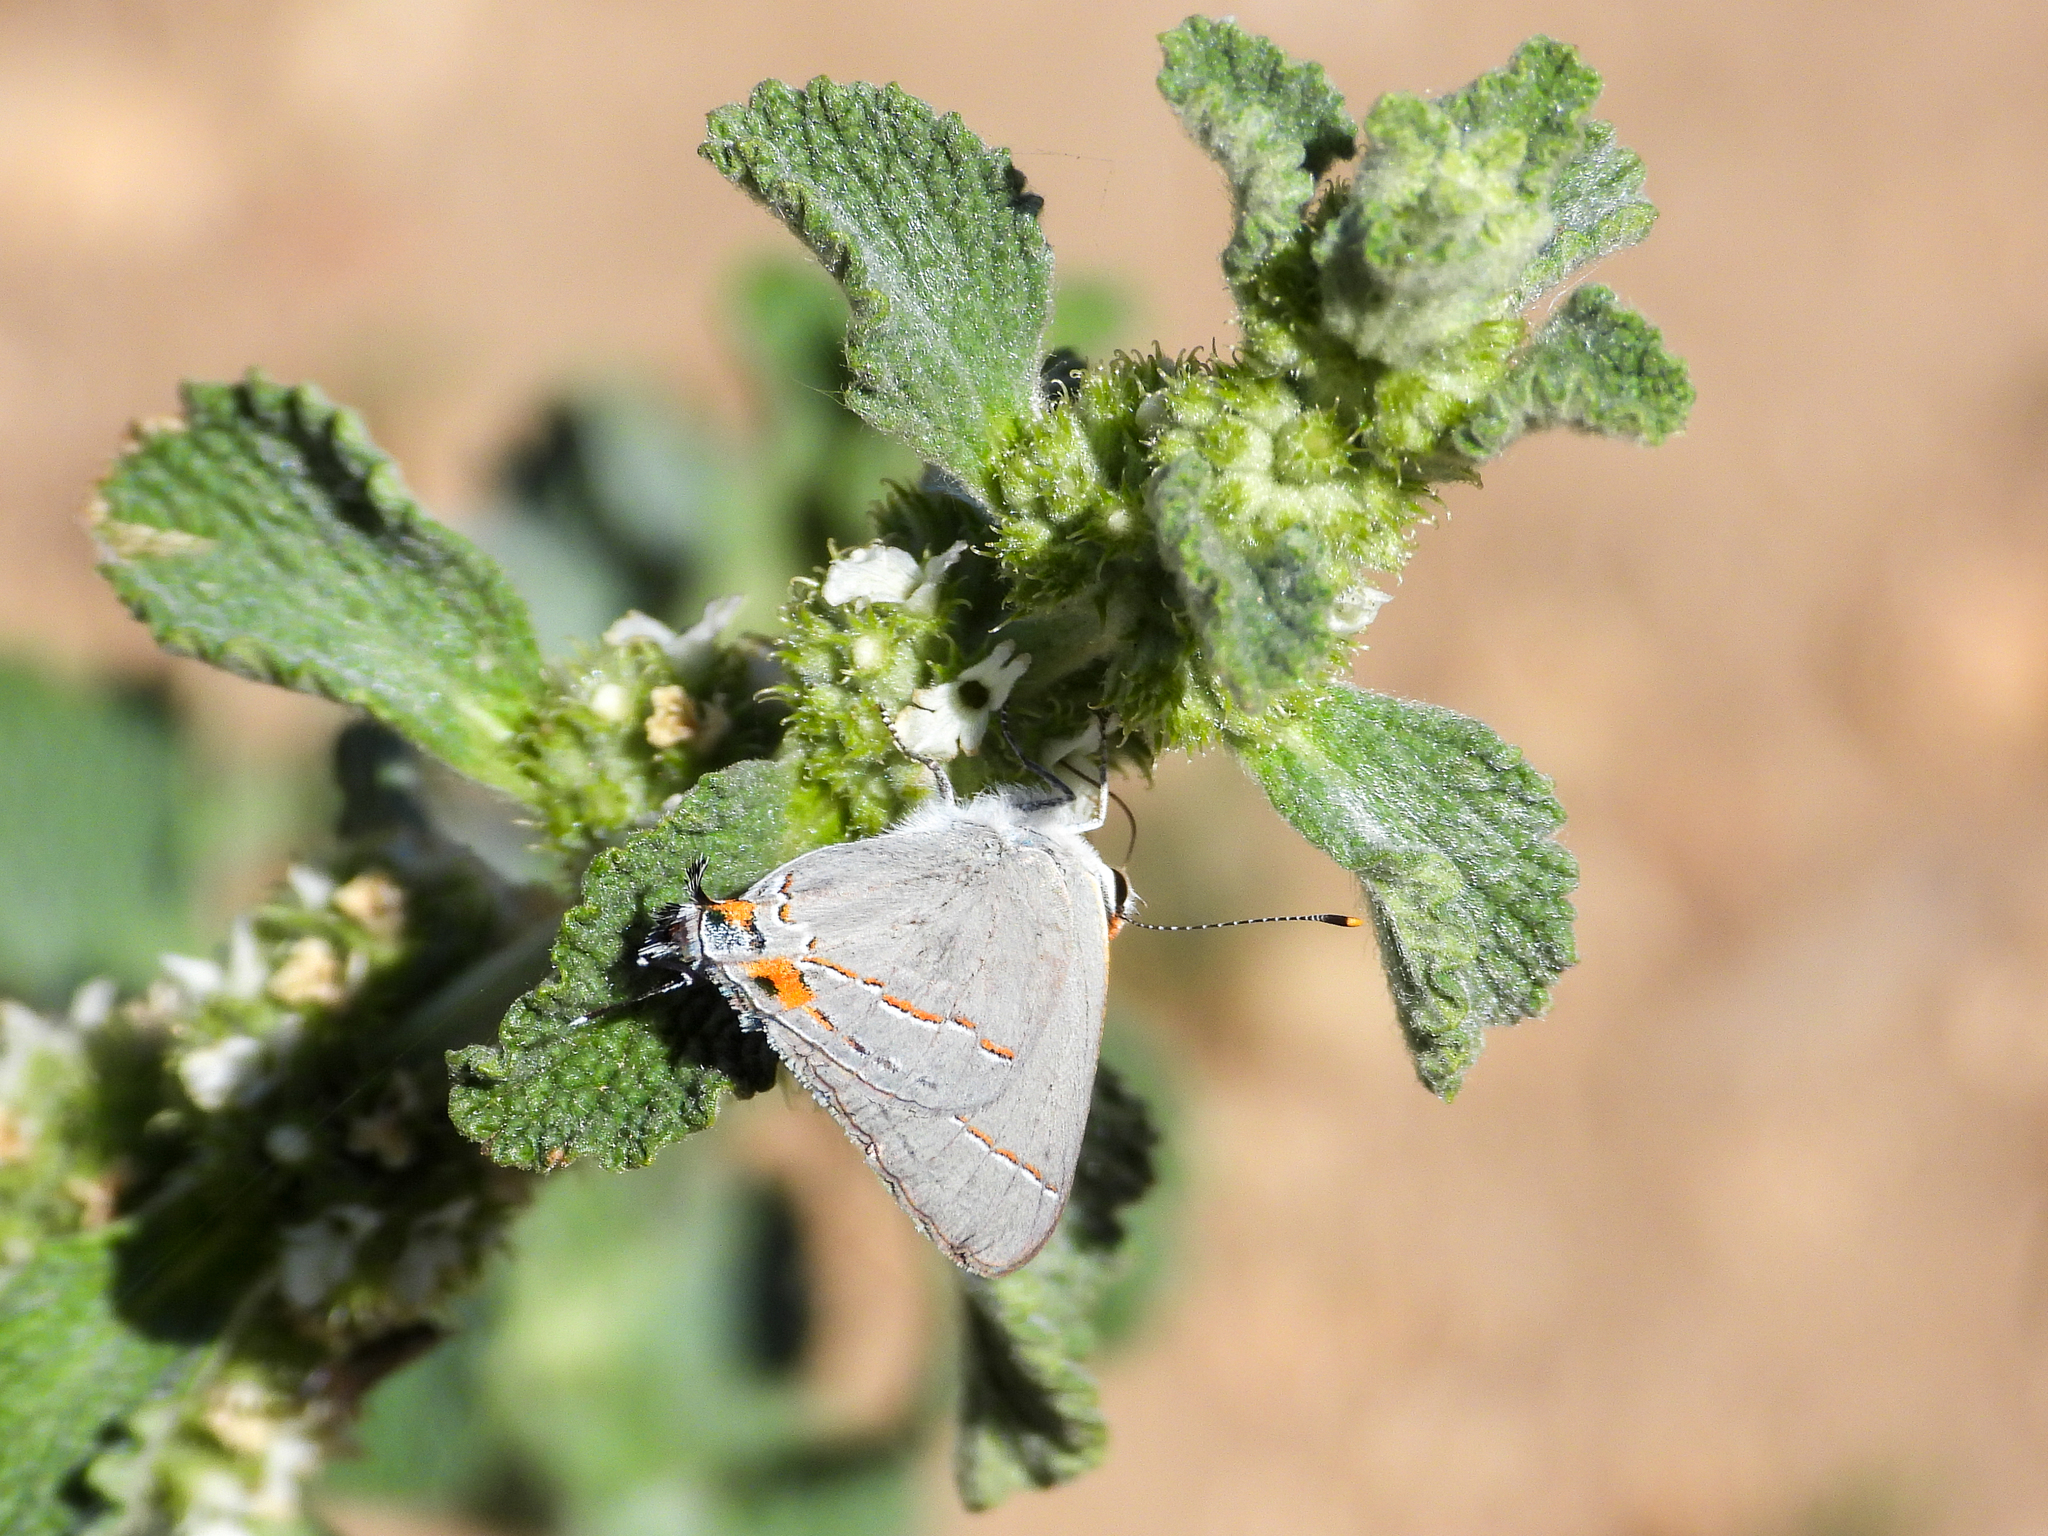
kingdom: Animalia
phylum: Arthropoda
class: Insecta
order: Lepidoptera
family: Lycaenidae
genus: Strymon
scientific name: Strymon melinus
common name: Gray hairstreak
